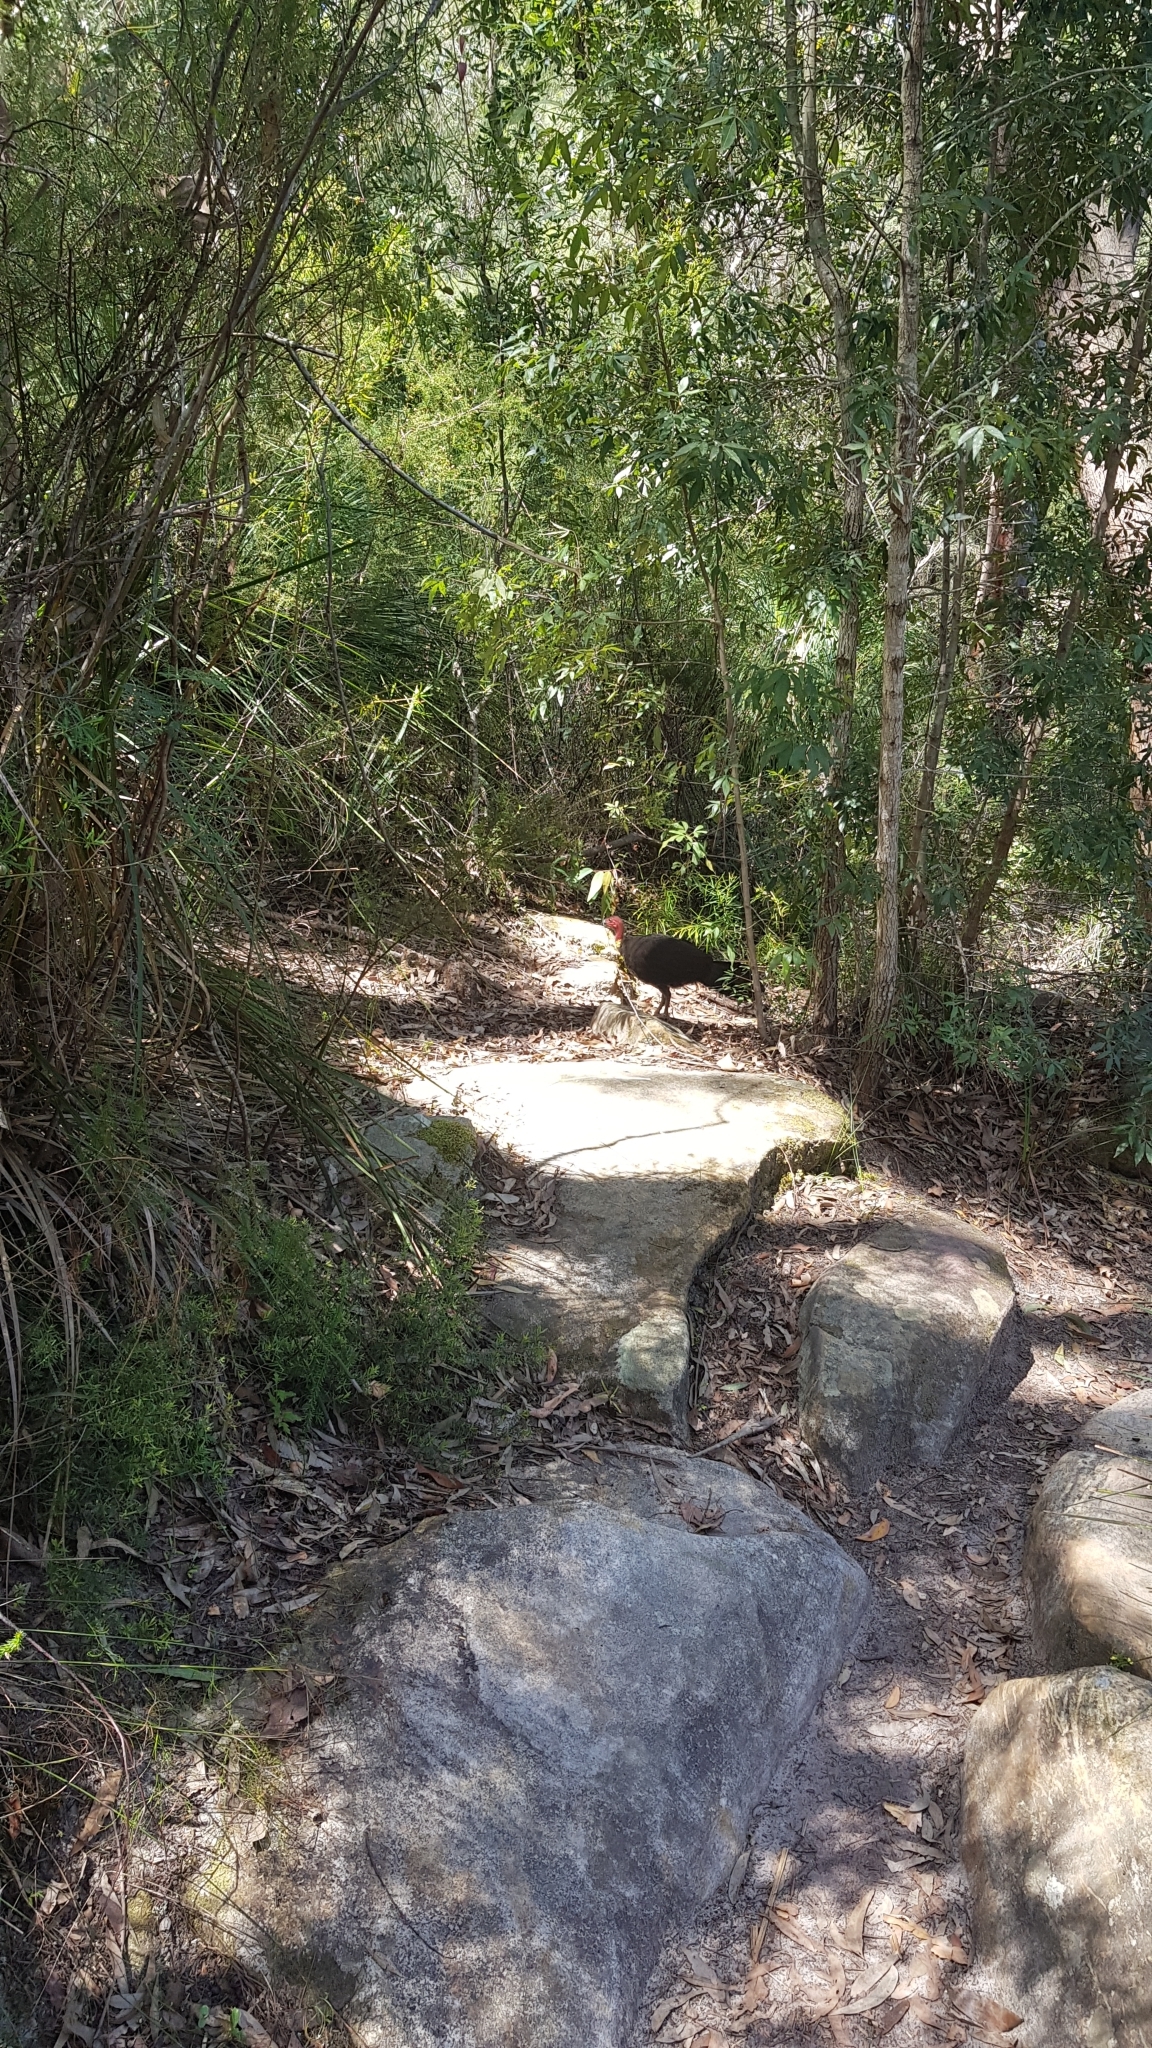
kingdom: Animalia
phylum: Chordata
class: Aves
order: Galliformes
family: Megapodiidae
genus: Alectura
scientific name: Alectura lathami
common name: Australian brushturkey
